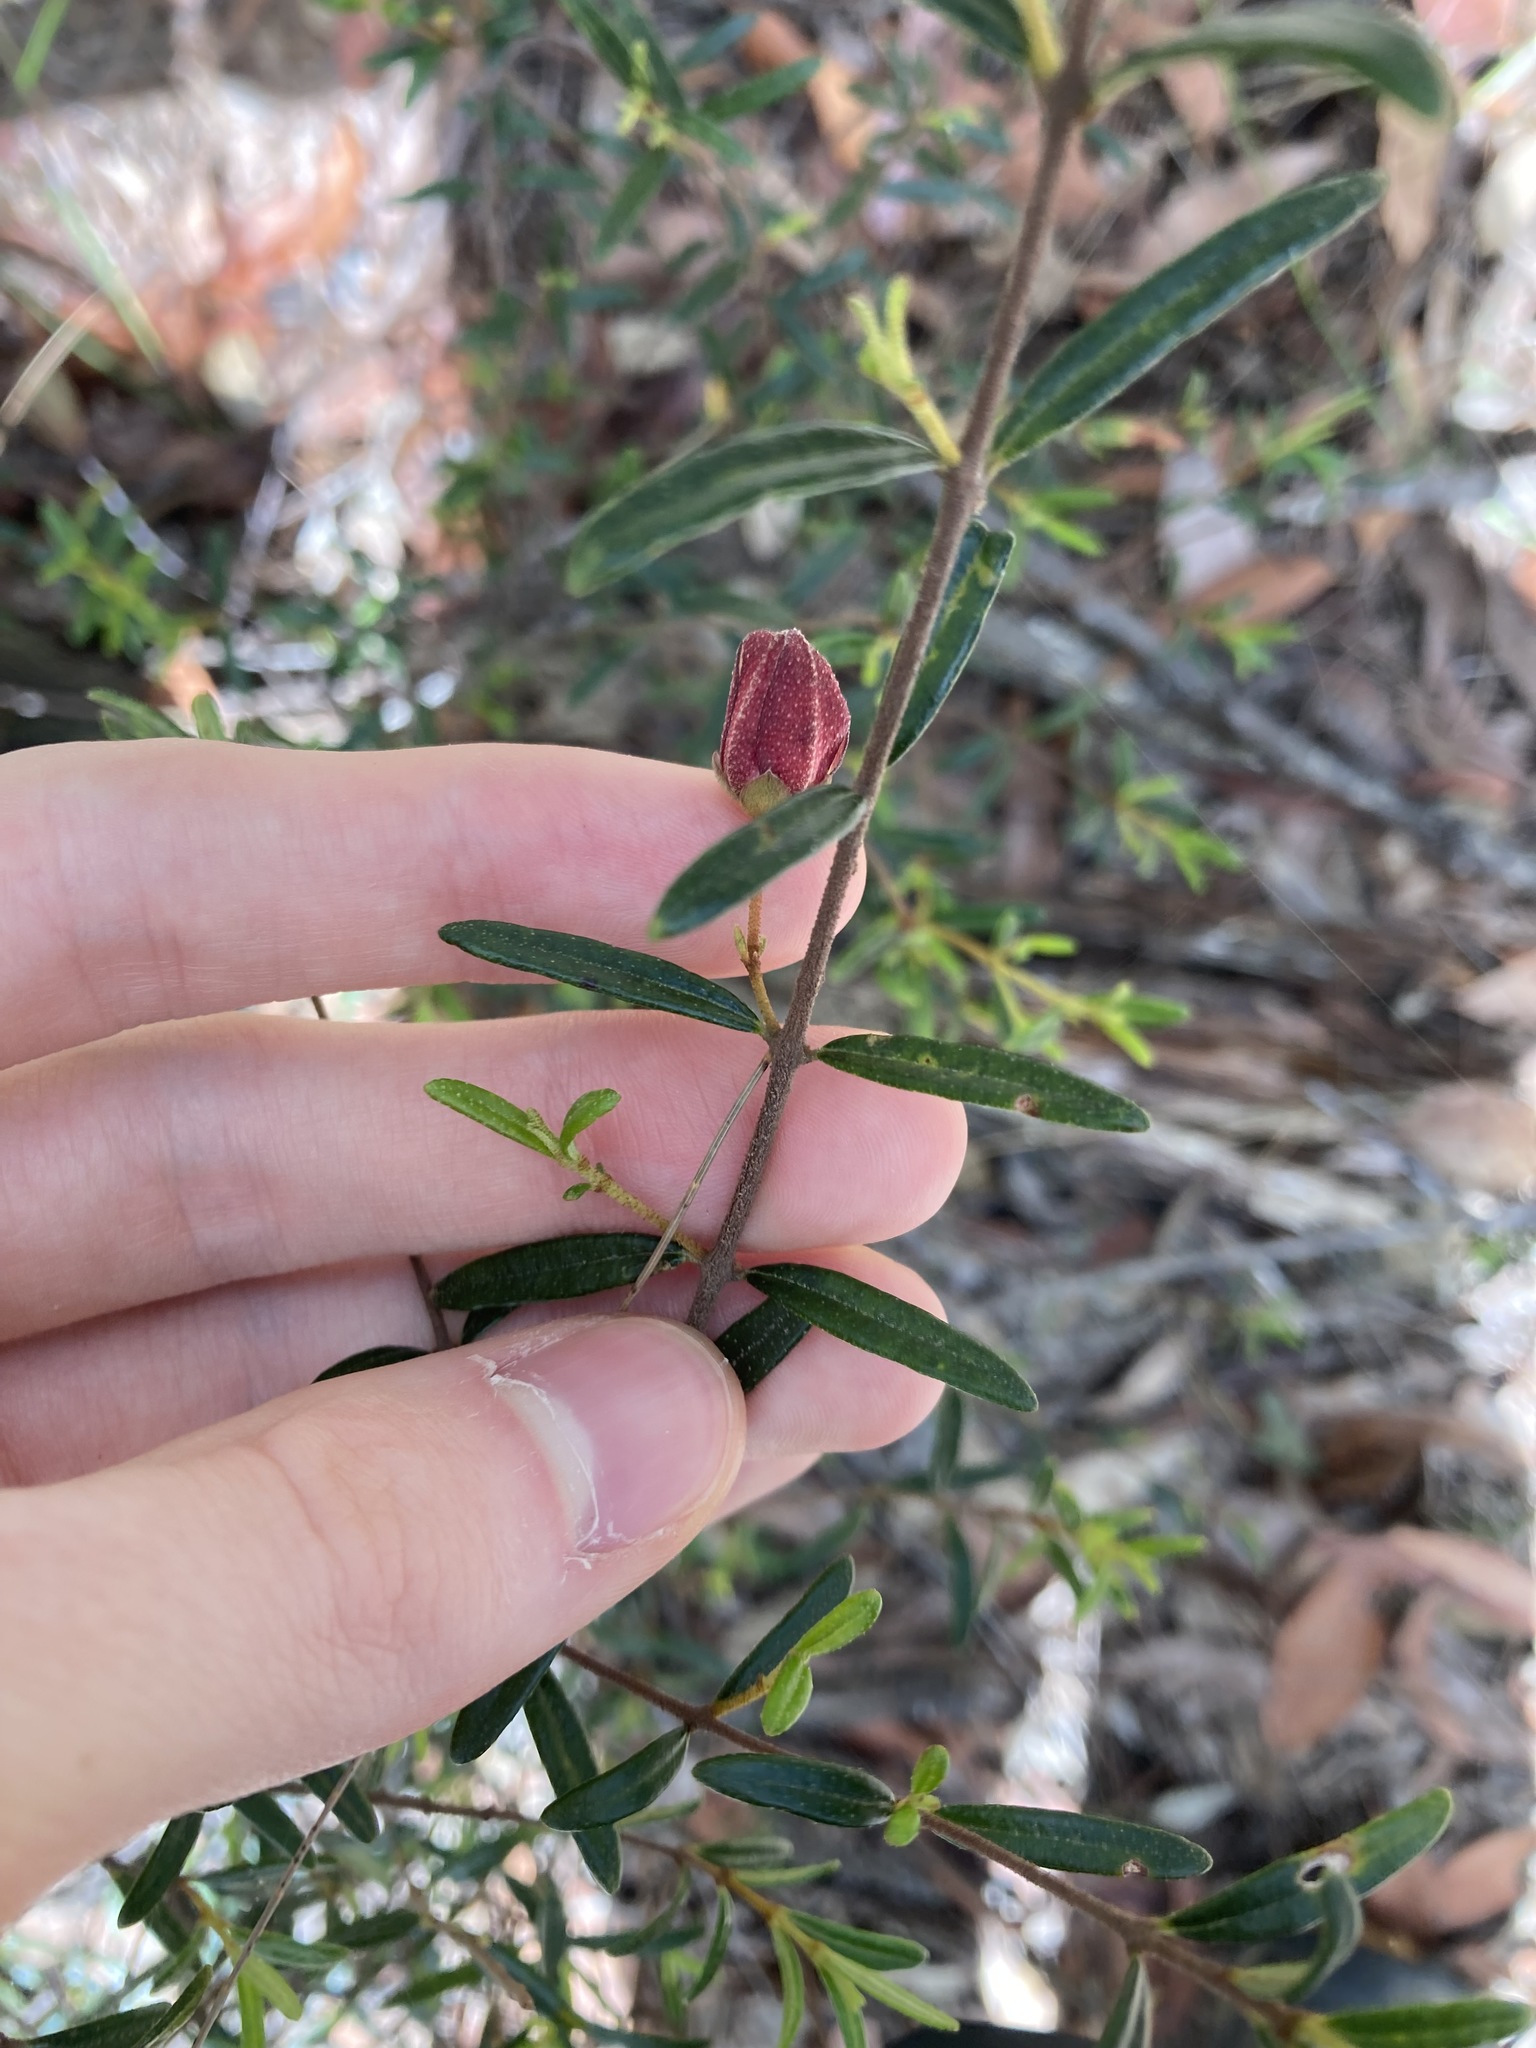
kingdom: Plantae
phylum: Tracheophyta
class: Magnoliopsida
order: Sapindales
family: Rutaceae
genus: Boronia
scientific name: Boronia ledifolia
